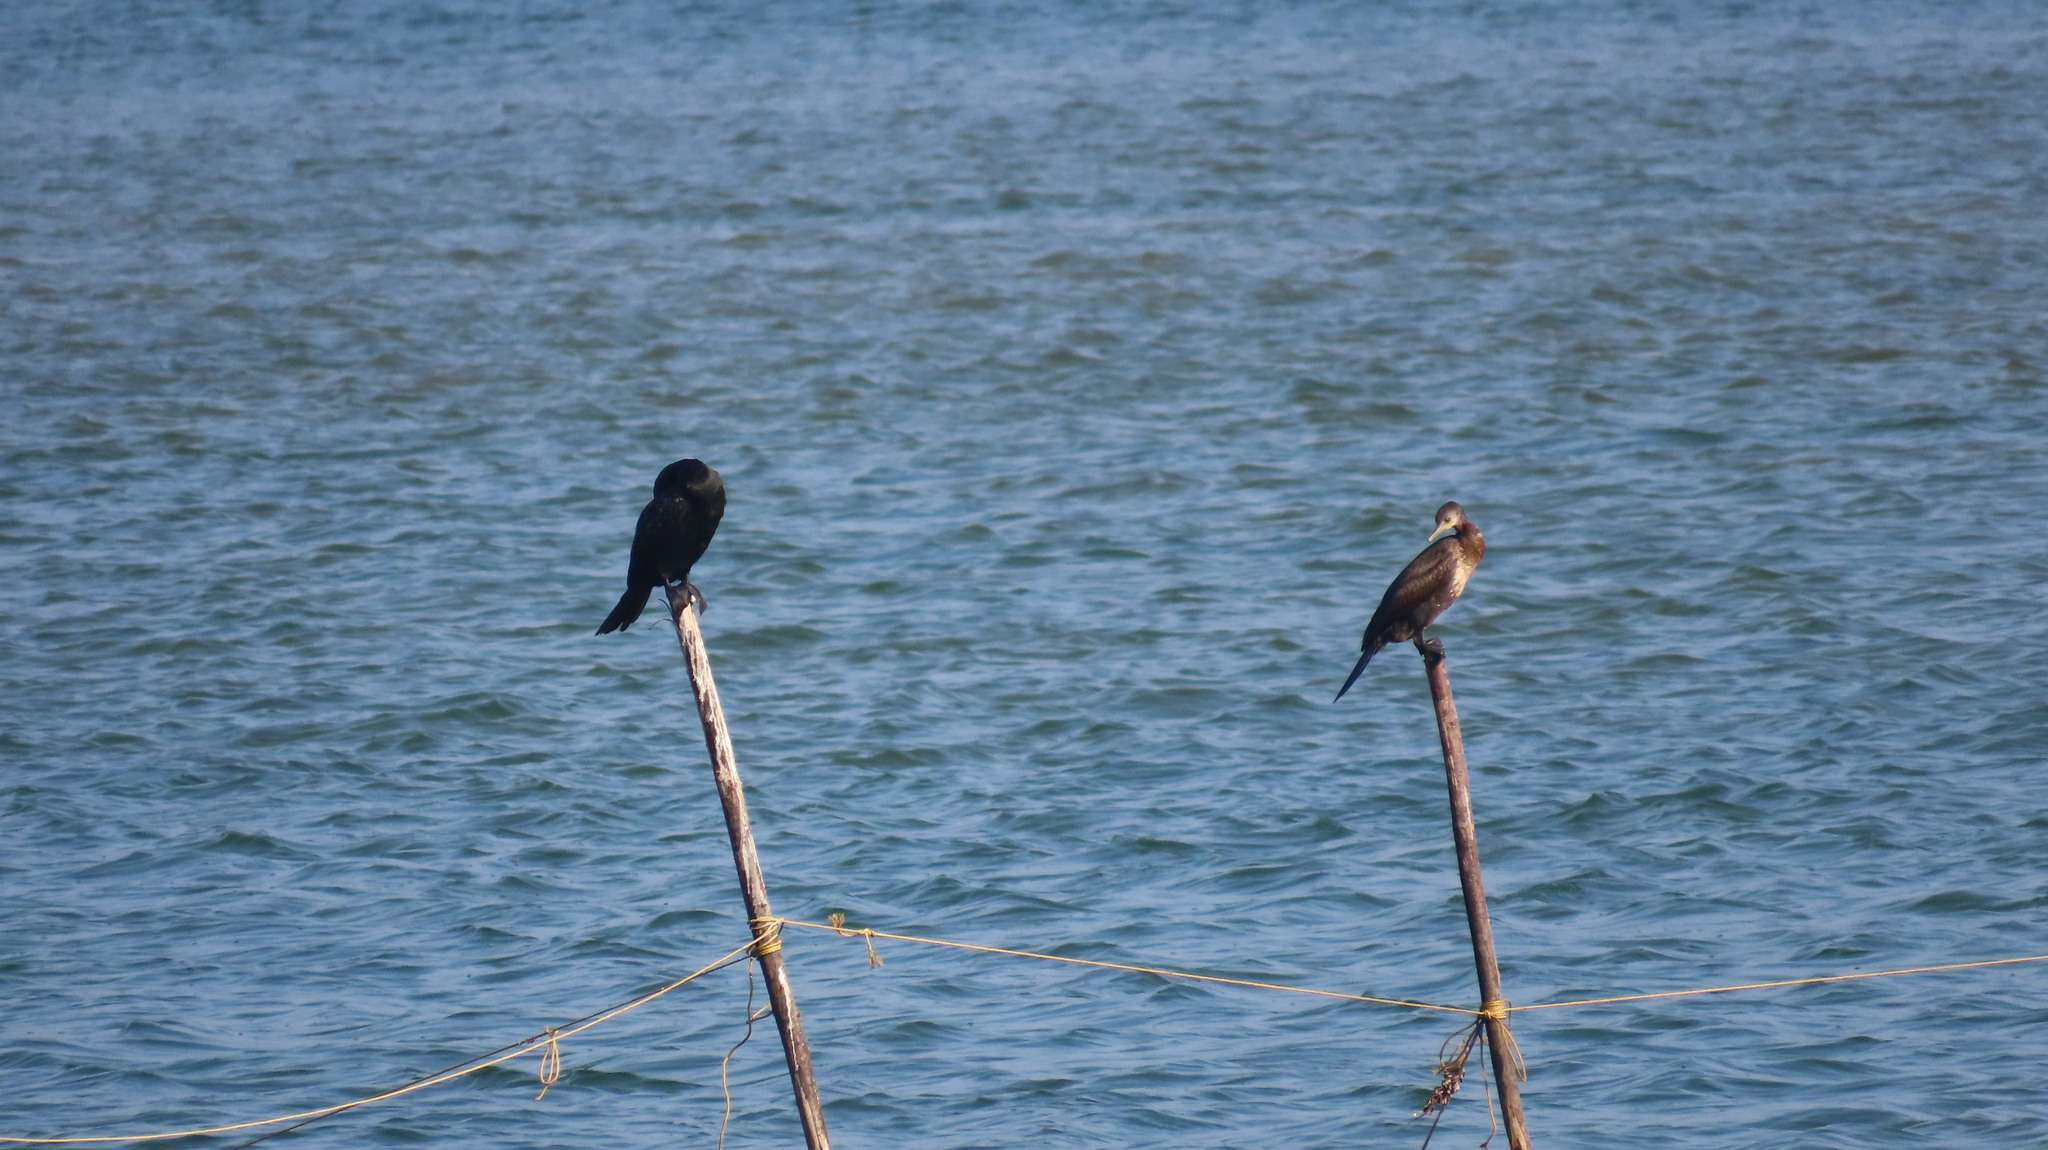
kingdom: Animalia
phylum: Chordata
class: Aves
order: Suliformes
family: Phalacrocoracidae
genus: Phalacrocorax
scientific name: Phalacrocorax fuscicollis
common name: Indian cormorant
